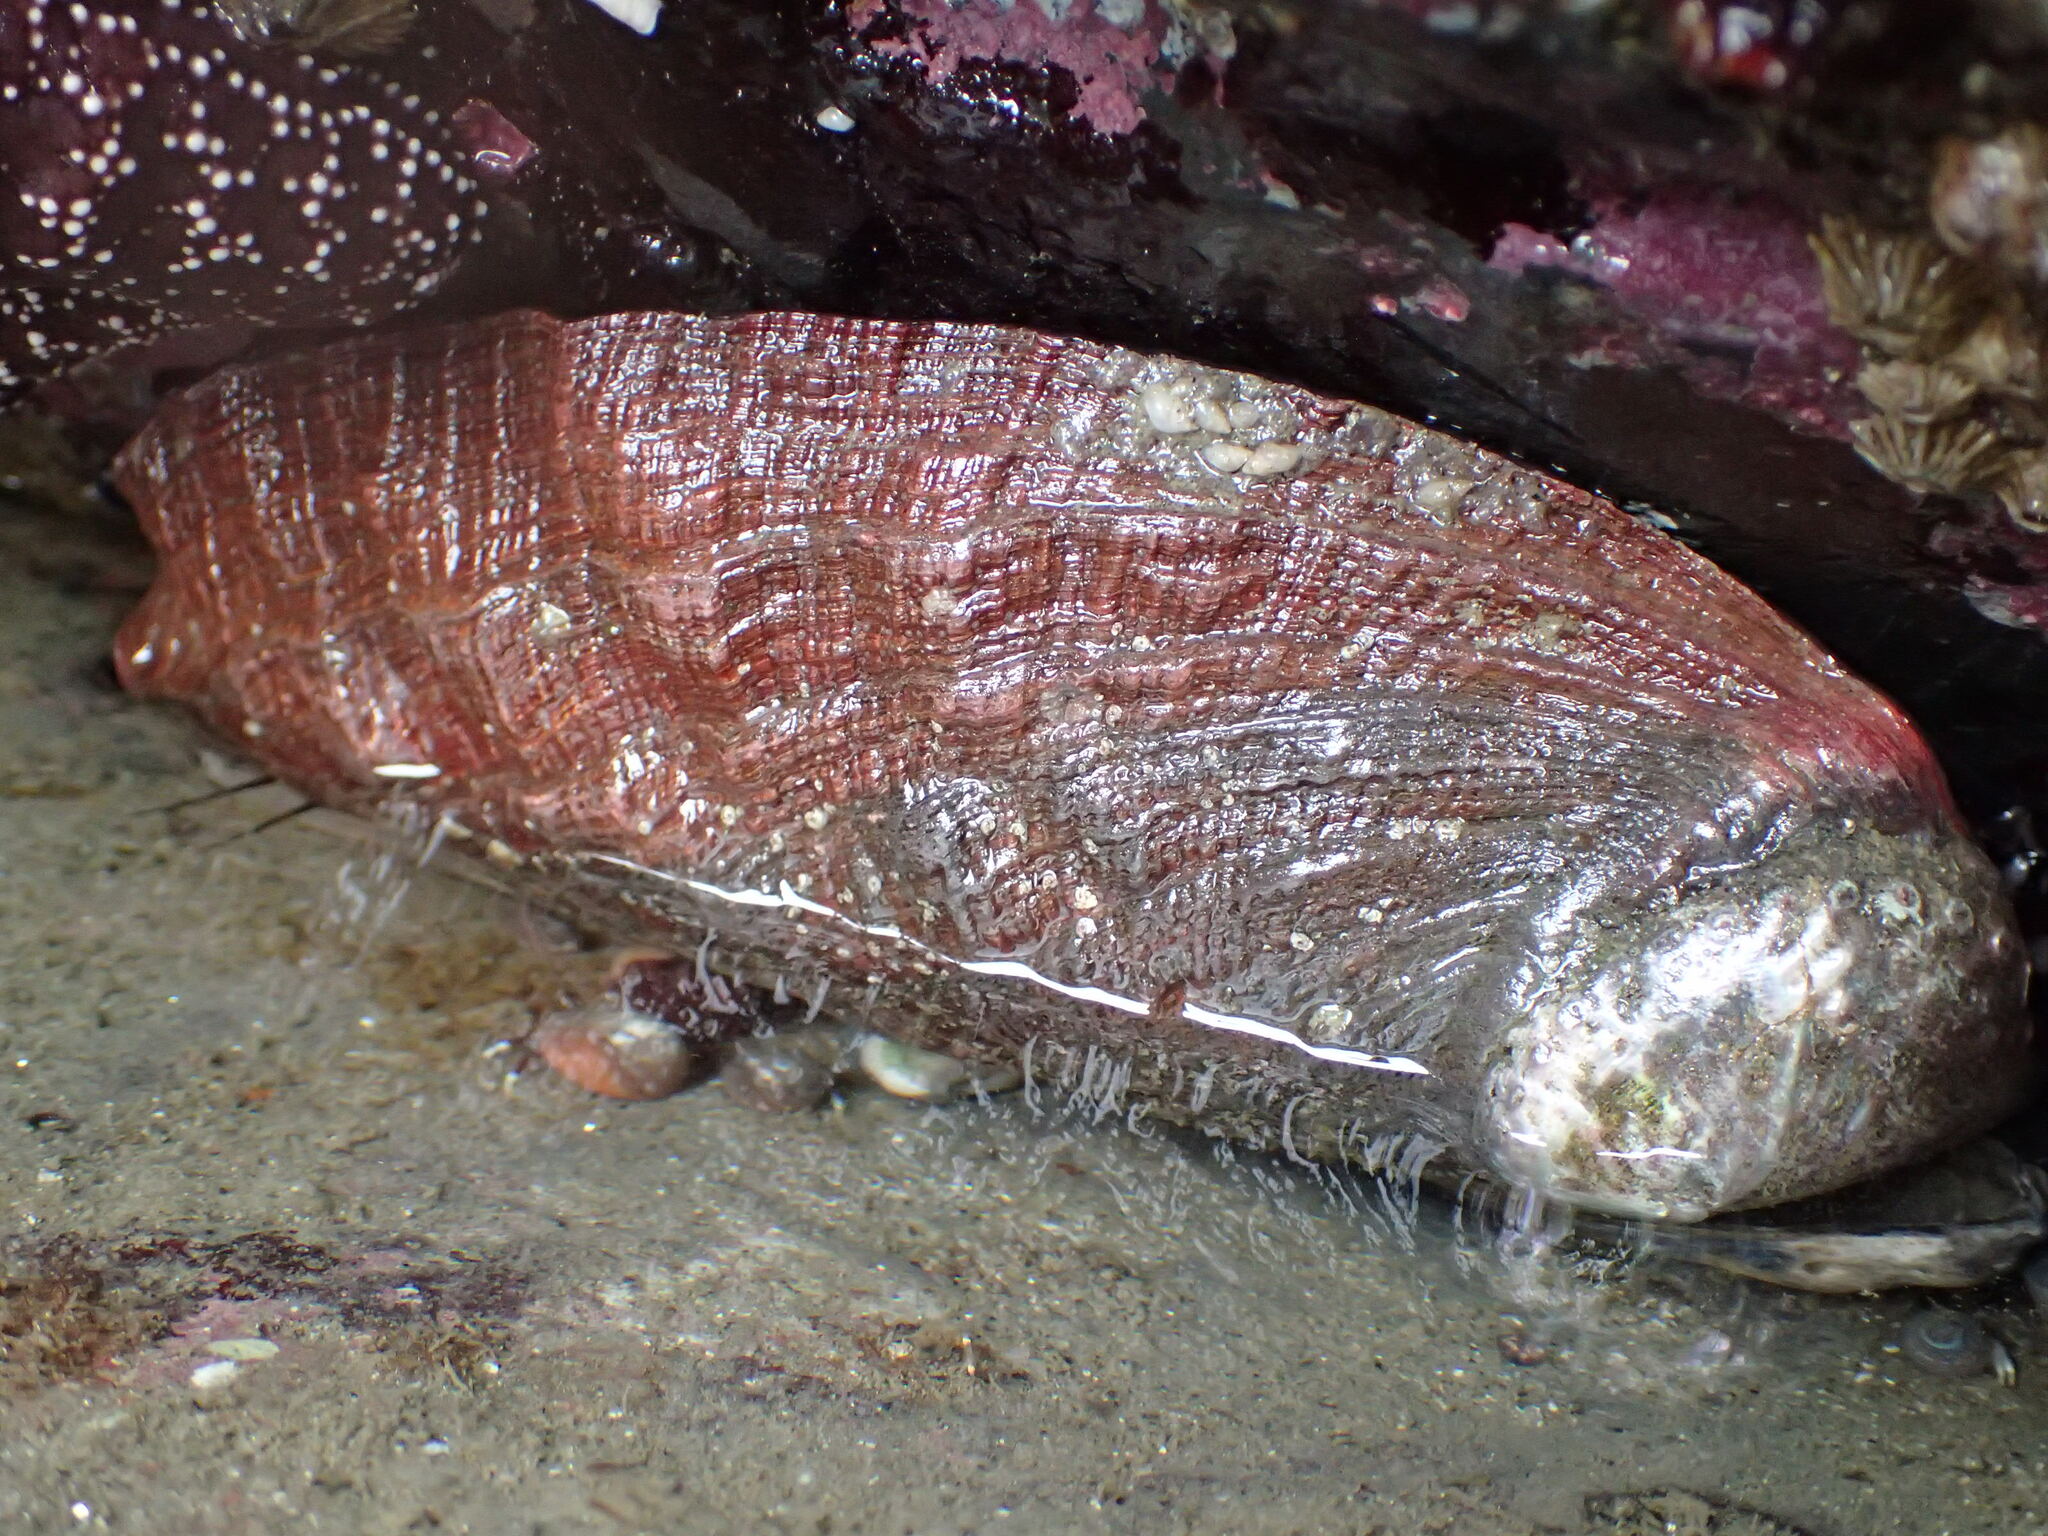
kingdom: Animalia
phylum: Mollusca
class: Gastropoda
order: Lepetellida
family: Haliotidae
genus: Haliotis
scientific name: Haliotis rufescens
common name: Red abalone
